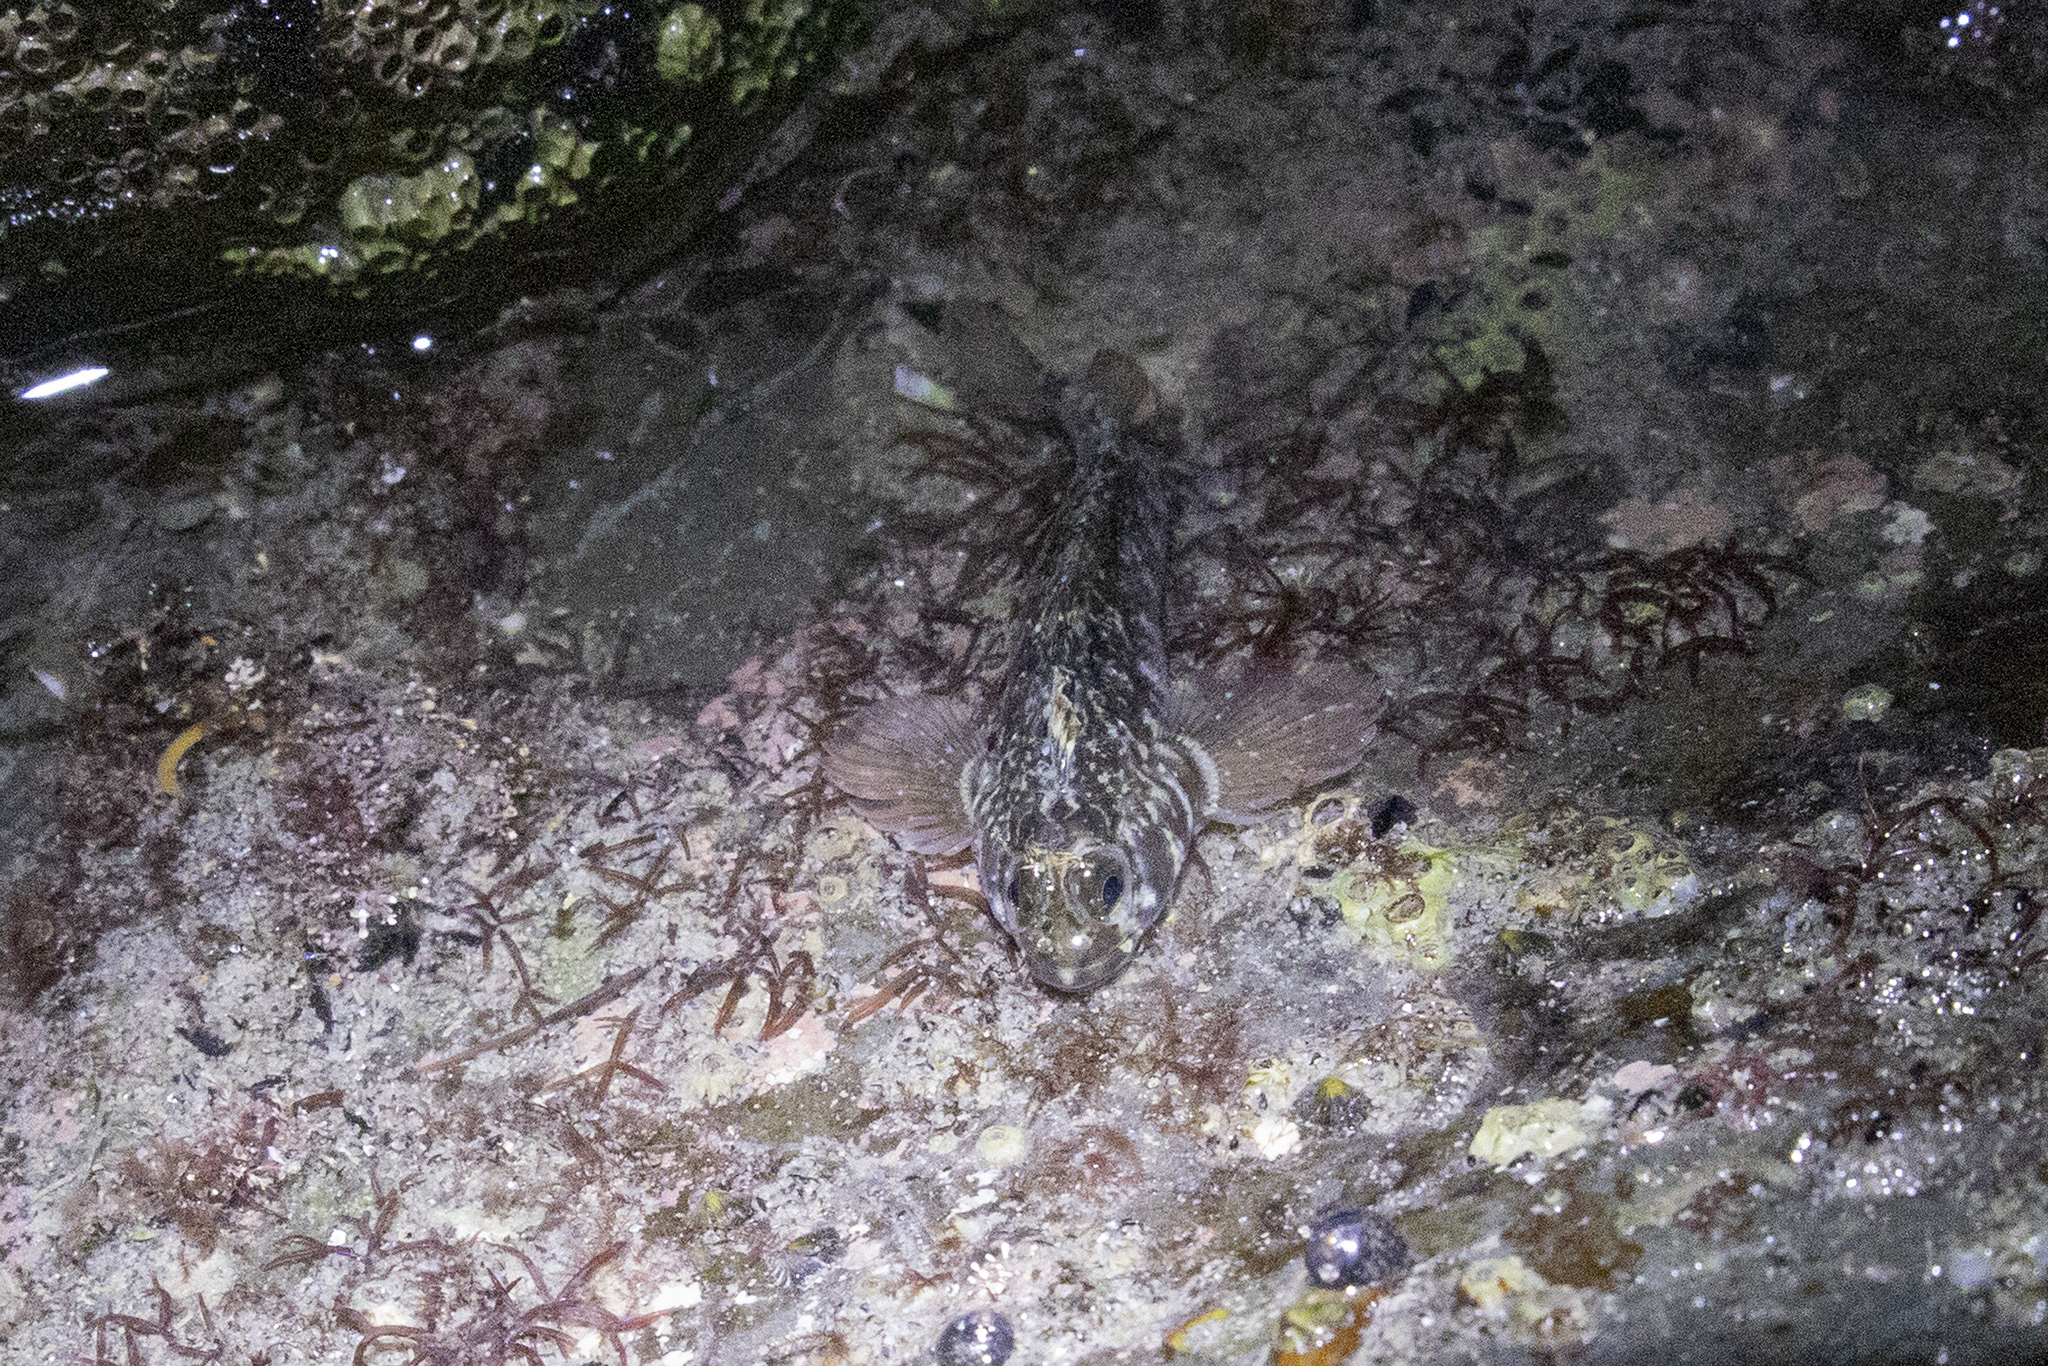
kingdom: Animalia
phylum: Chordata
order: Perciformes
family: Tripterygiidae
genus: Forsterygion
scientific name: Forsterygion gymnotum
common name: Multifid-tentacled robust triplefin
